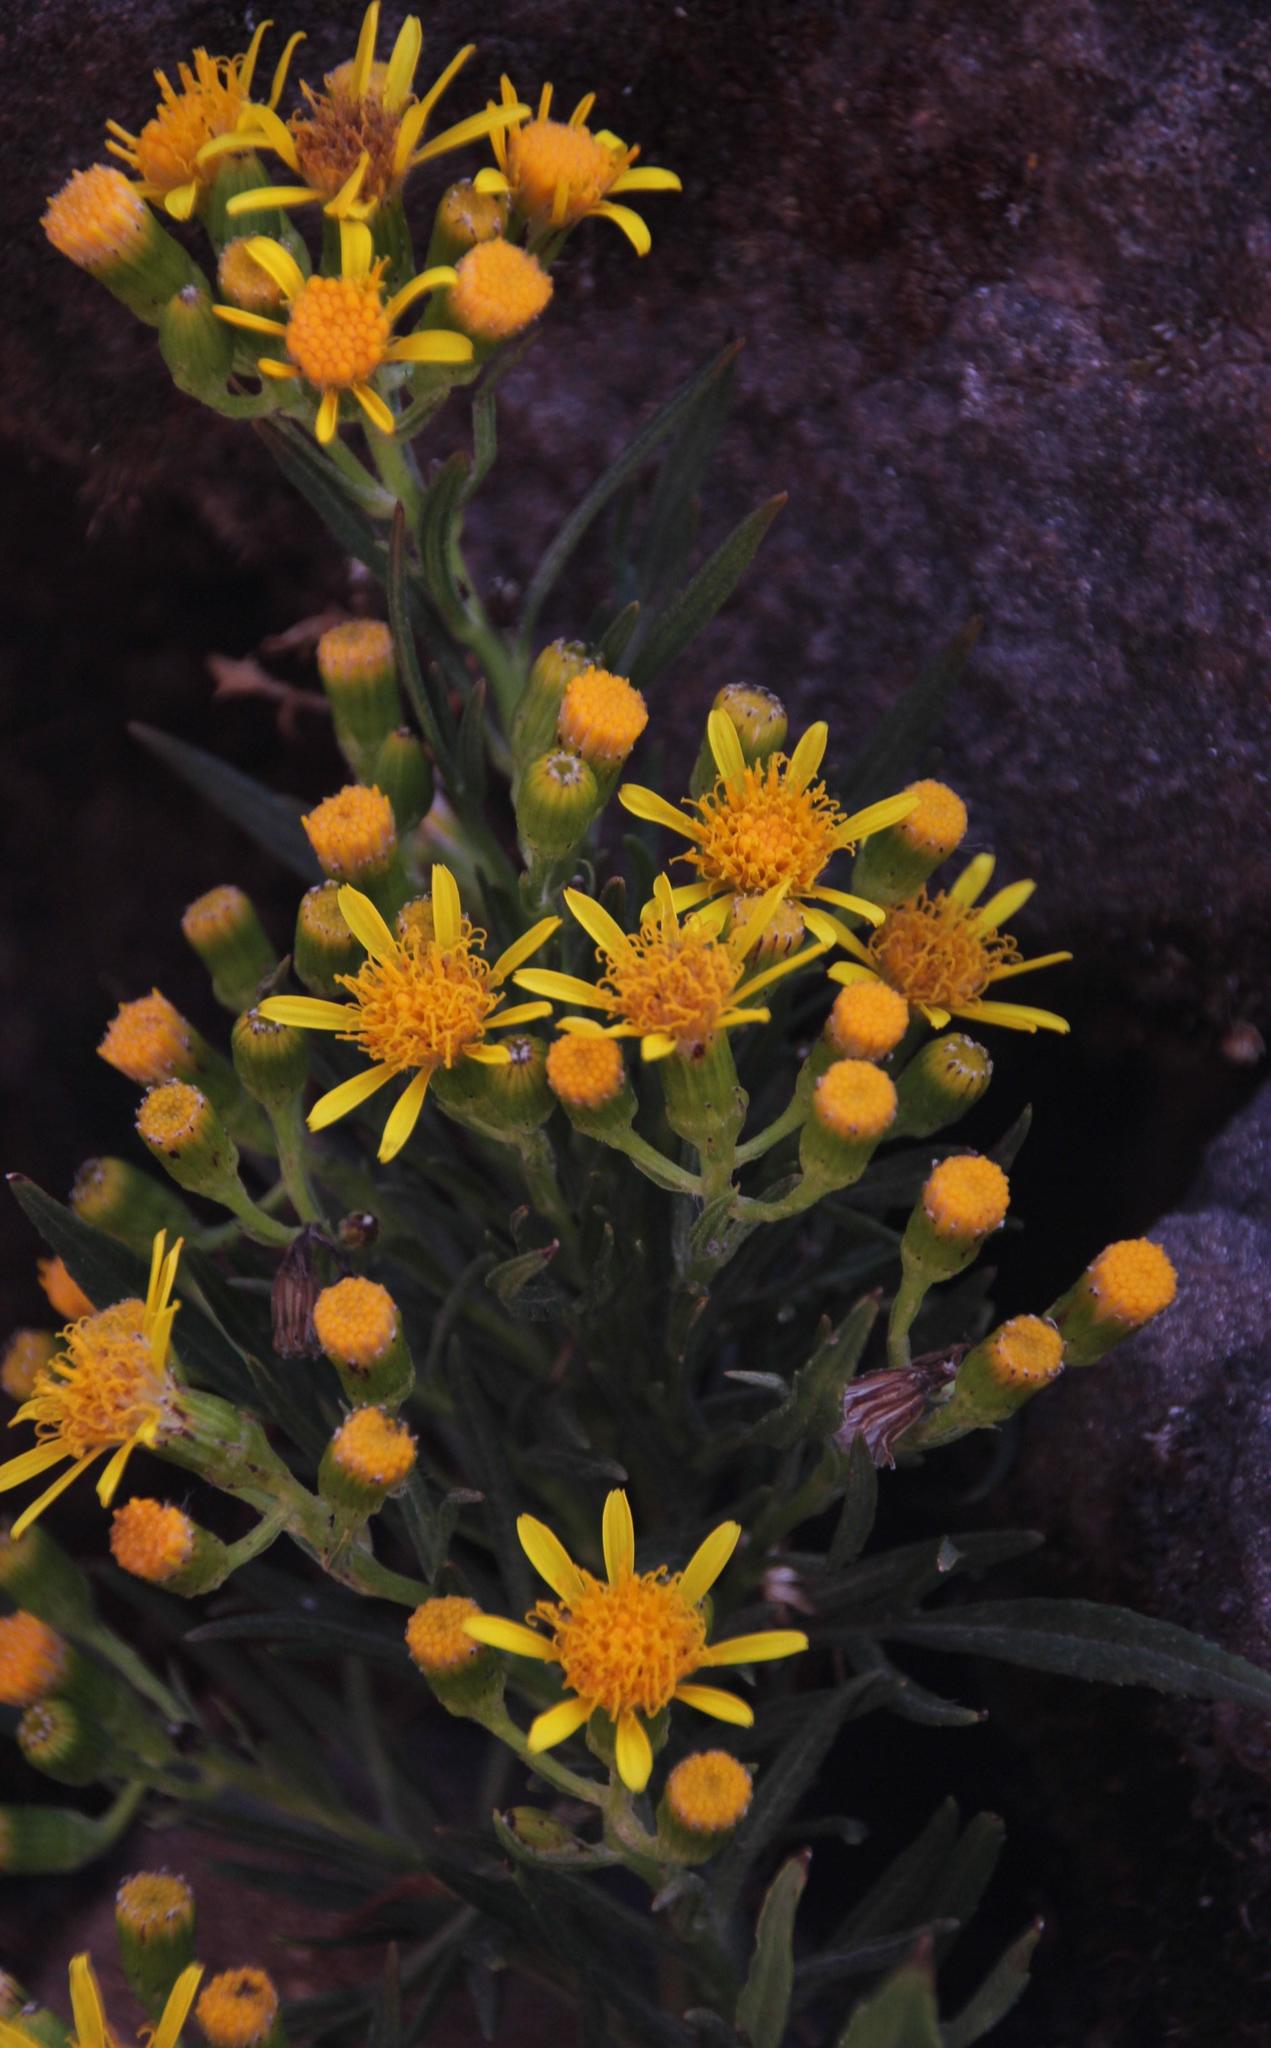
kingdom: Plantae
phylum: Tracheophyta
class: Magnoliopsida
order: Asterales
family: Asteraceae
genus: Senecio
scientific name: Senecio rudbeckiifolius
